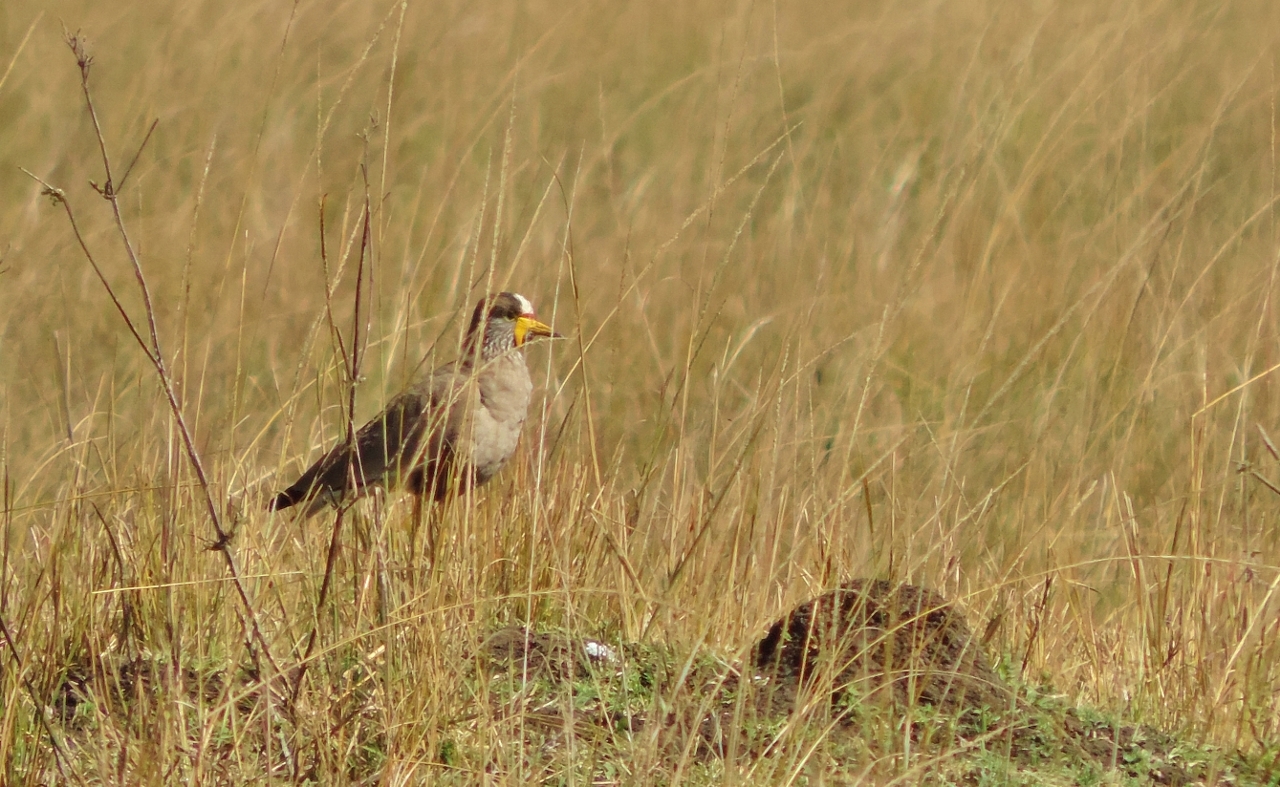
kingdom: Animalia
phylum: Chordata
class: Aves
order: Charadriiformes
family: Charadriidae
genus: Vanellus
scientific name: Vanellus senegallus
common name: African wattled lapwing
